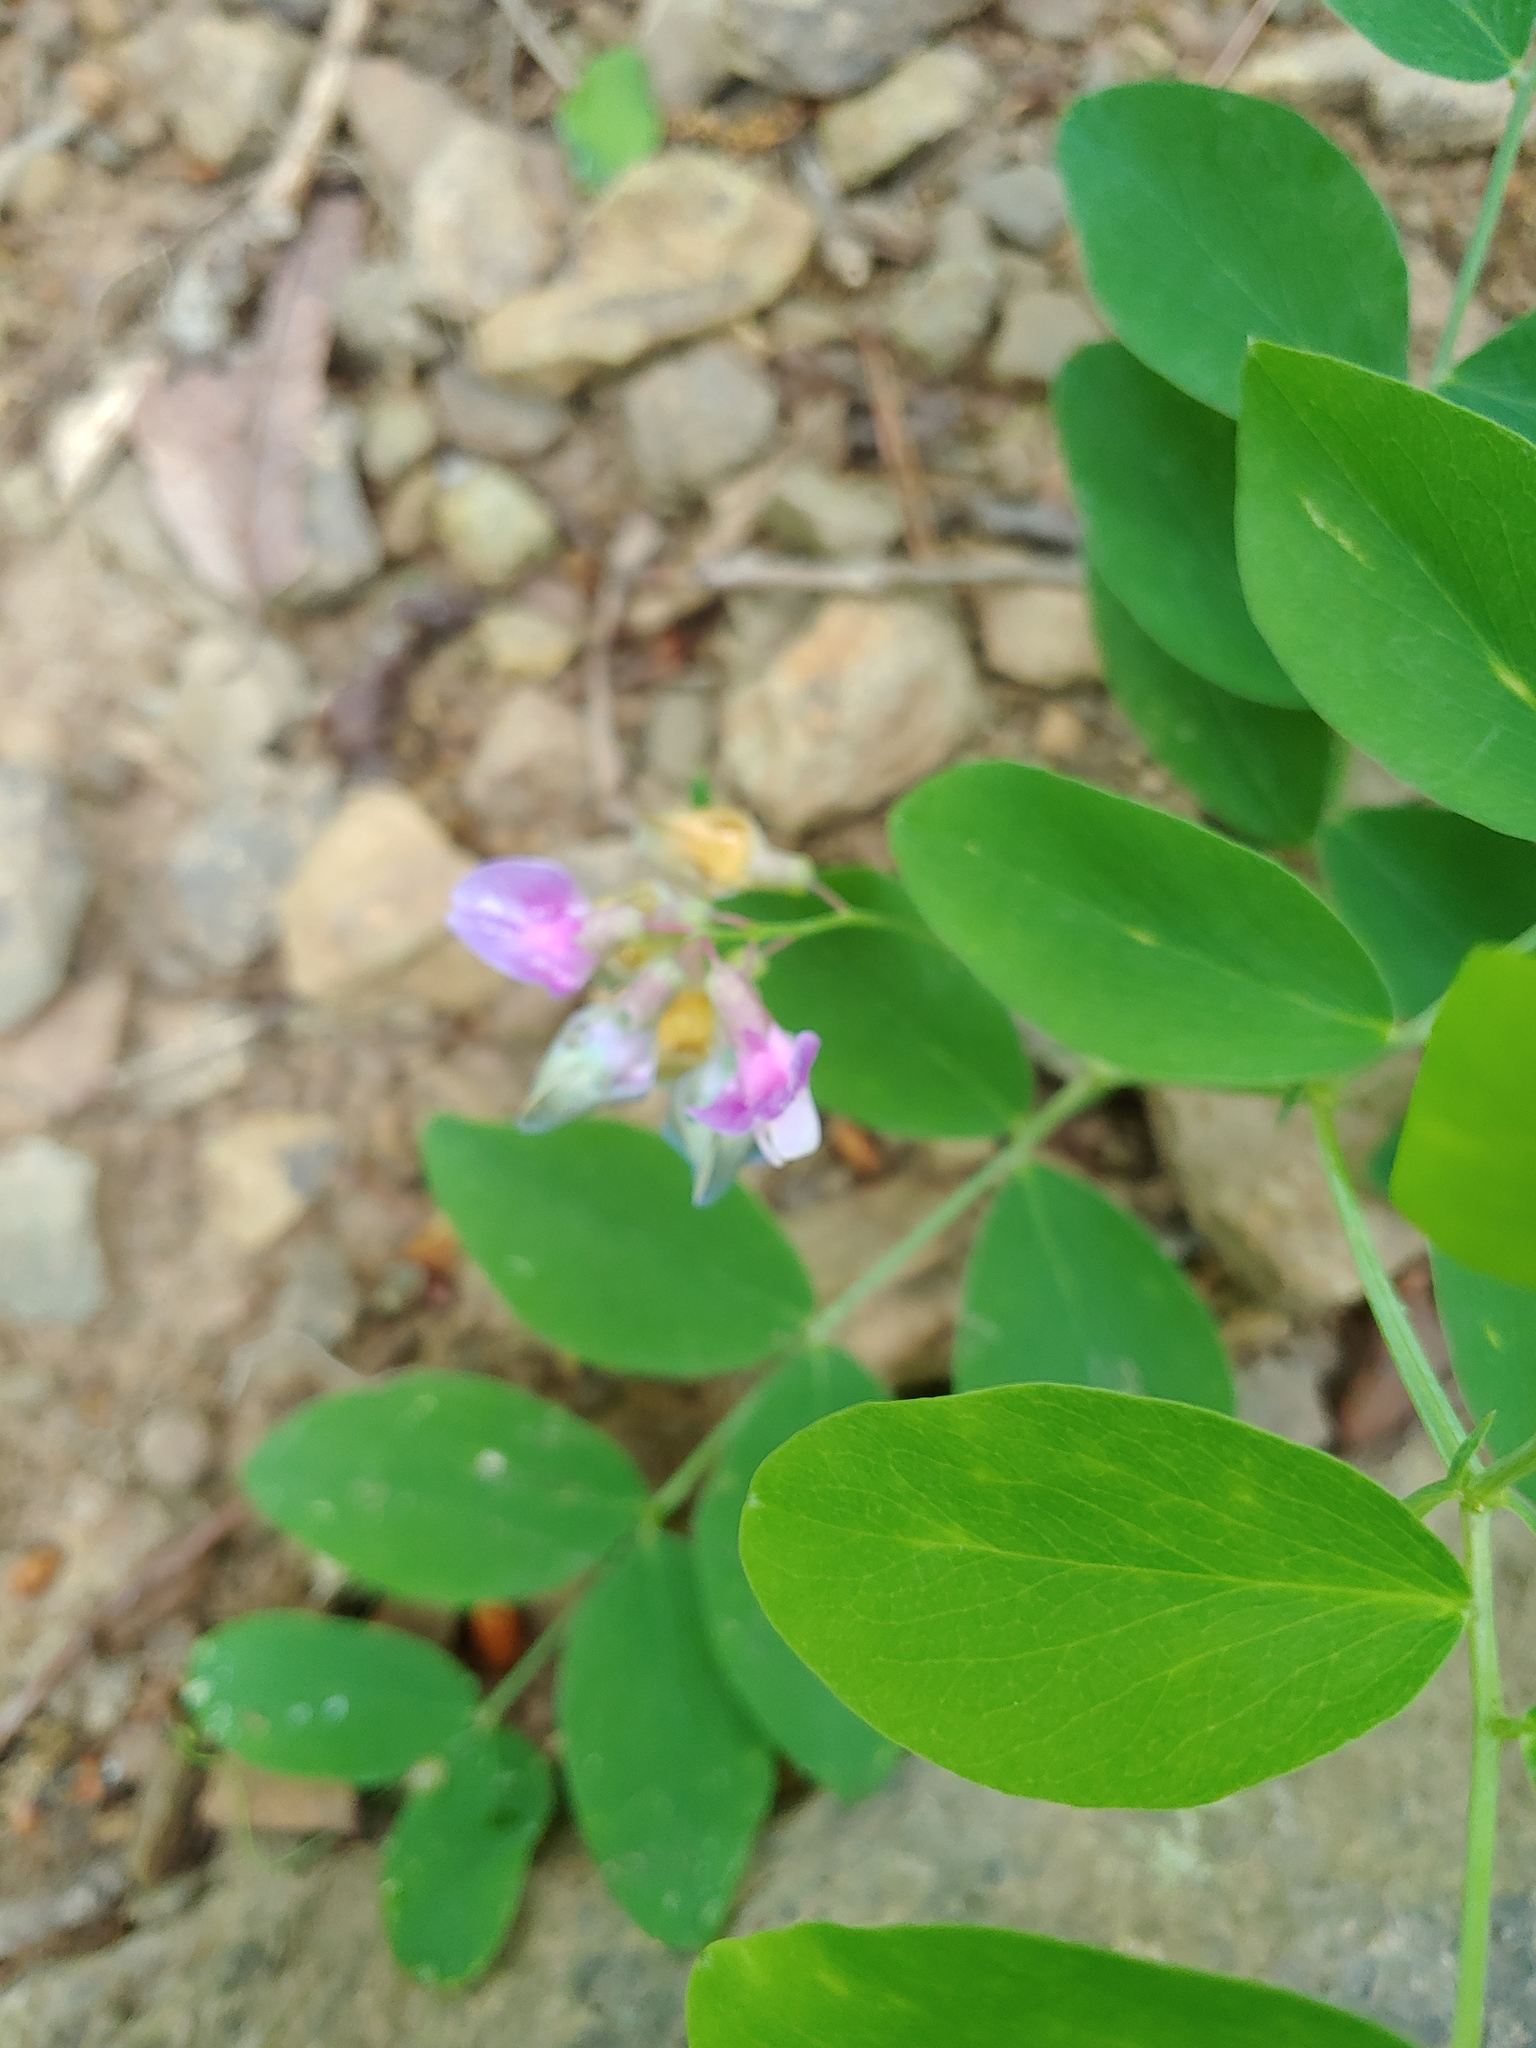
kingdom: Plantae
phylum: Tracheophyta
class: Magnoliopsida
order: Fabales
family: Fabaceae
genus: Lathyrus
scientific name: Lathyrus venosus
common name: Forest-pea
